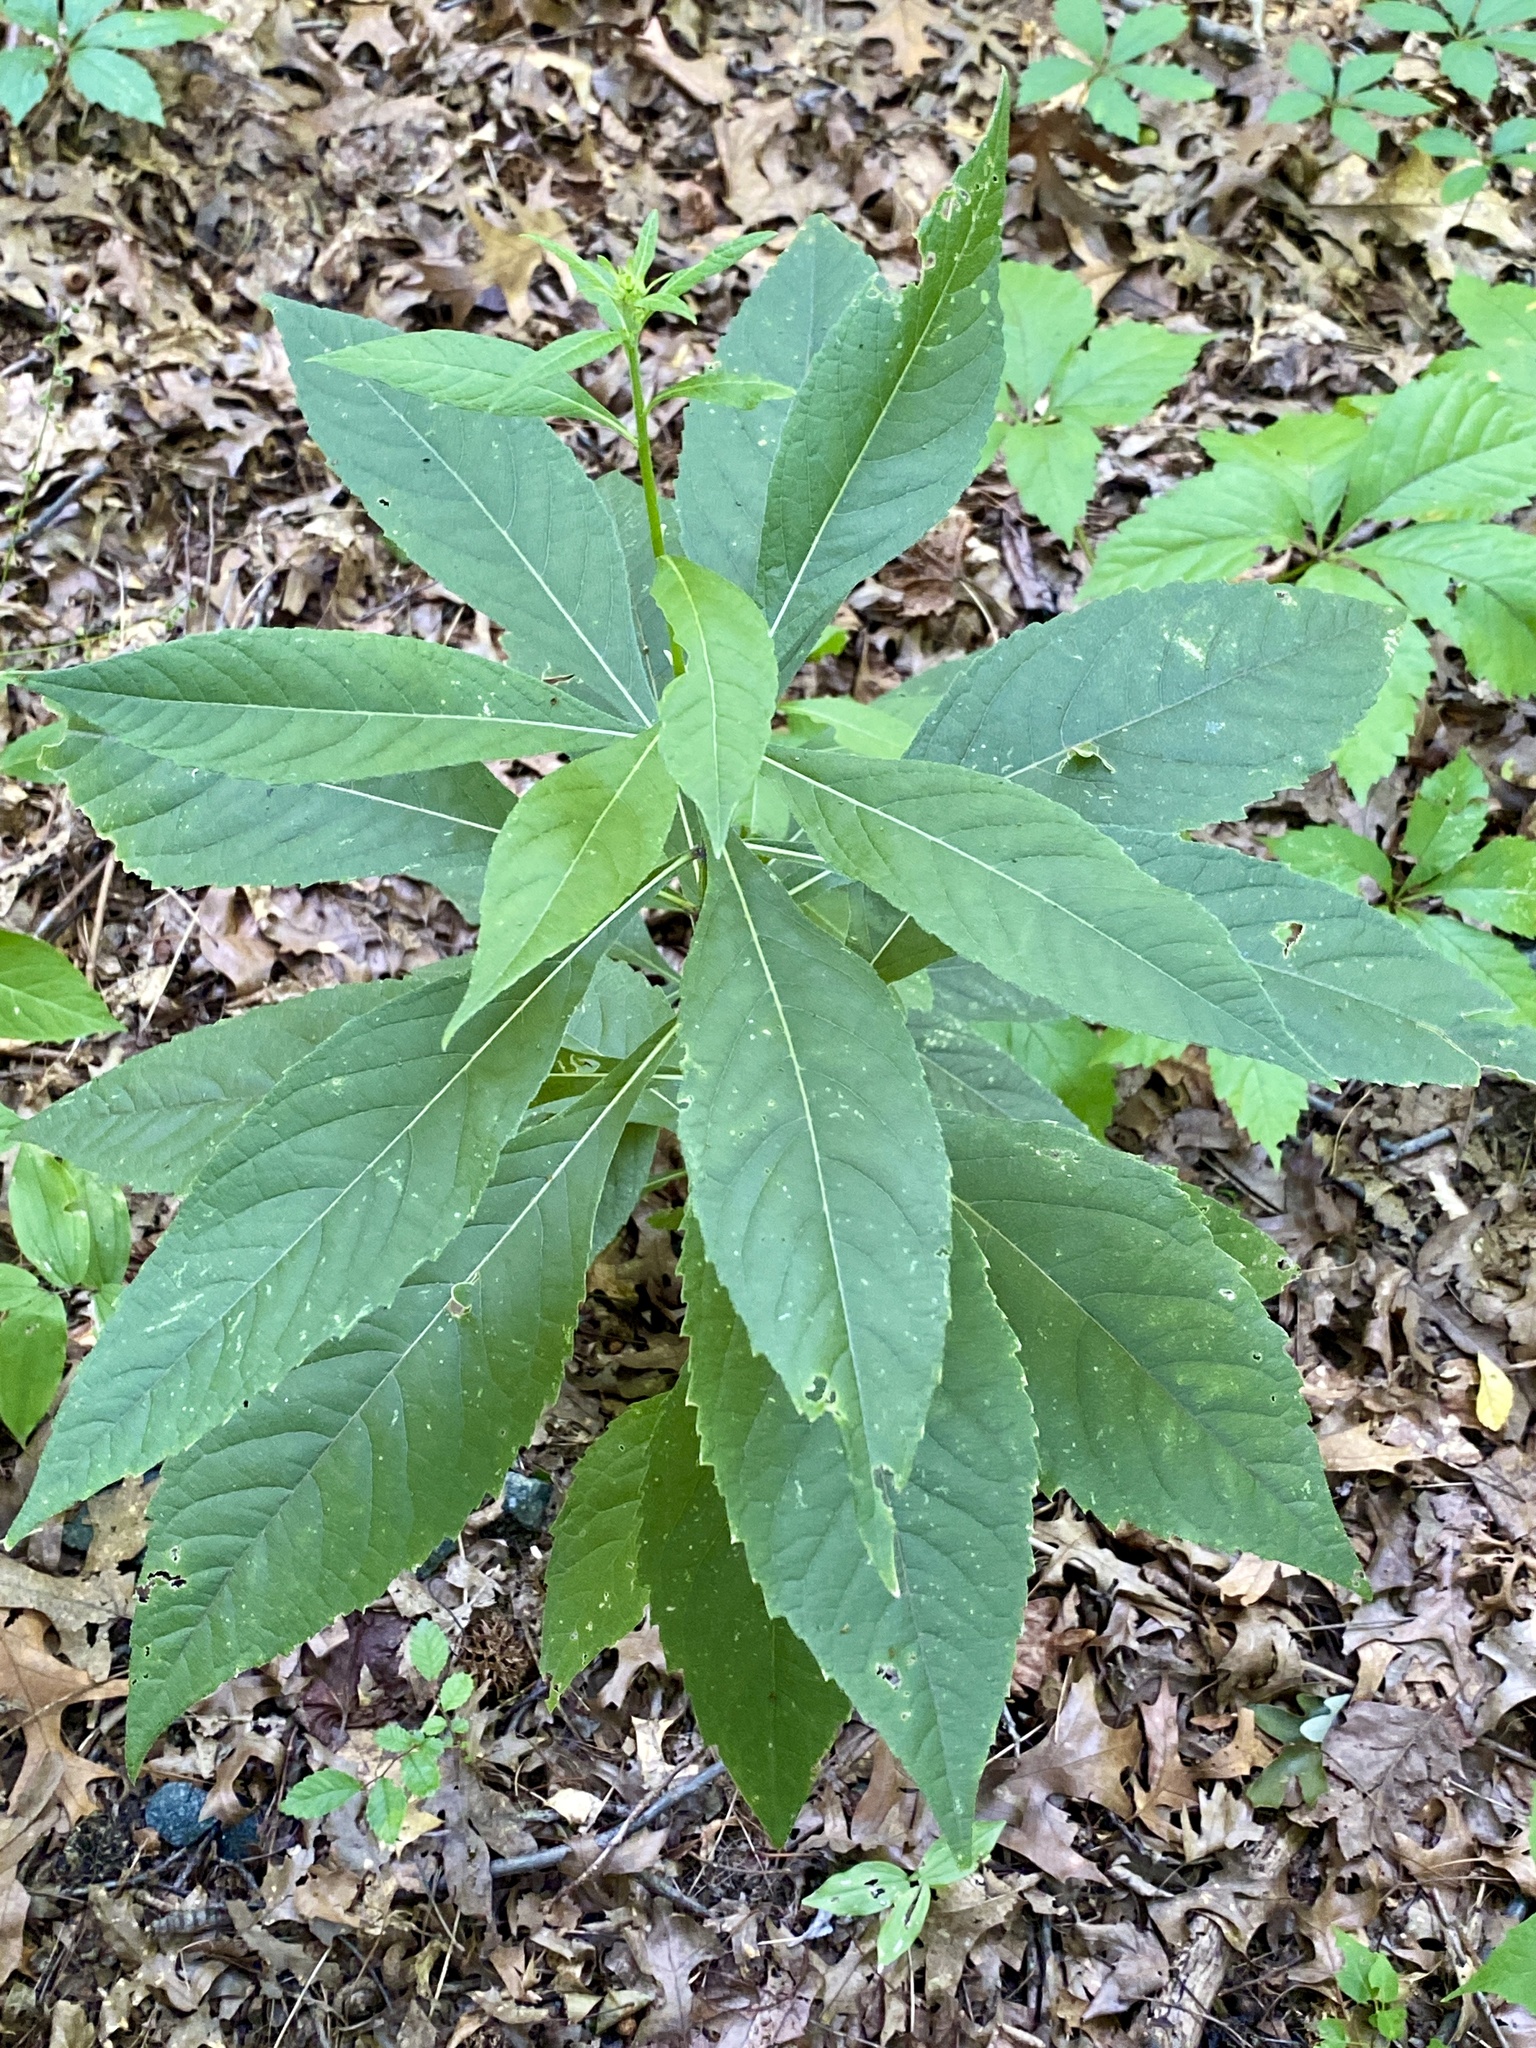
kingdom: Plantae
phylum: Tracheophyta
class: Magnoliopsida
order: Asterales
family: Asteraceae
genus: Verbesina
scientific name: Verbesina alternifolia
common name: Wingstem
